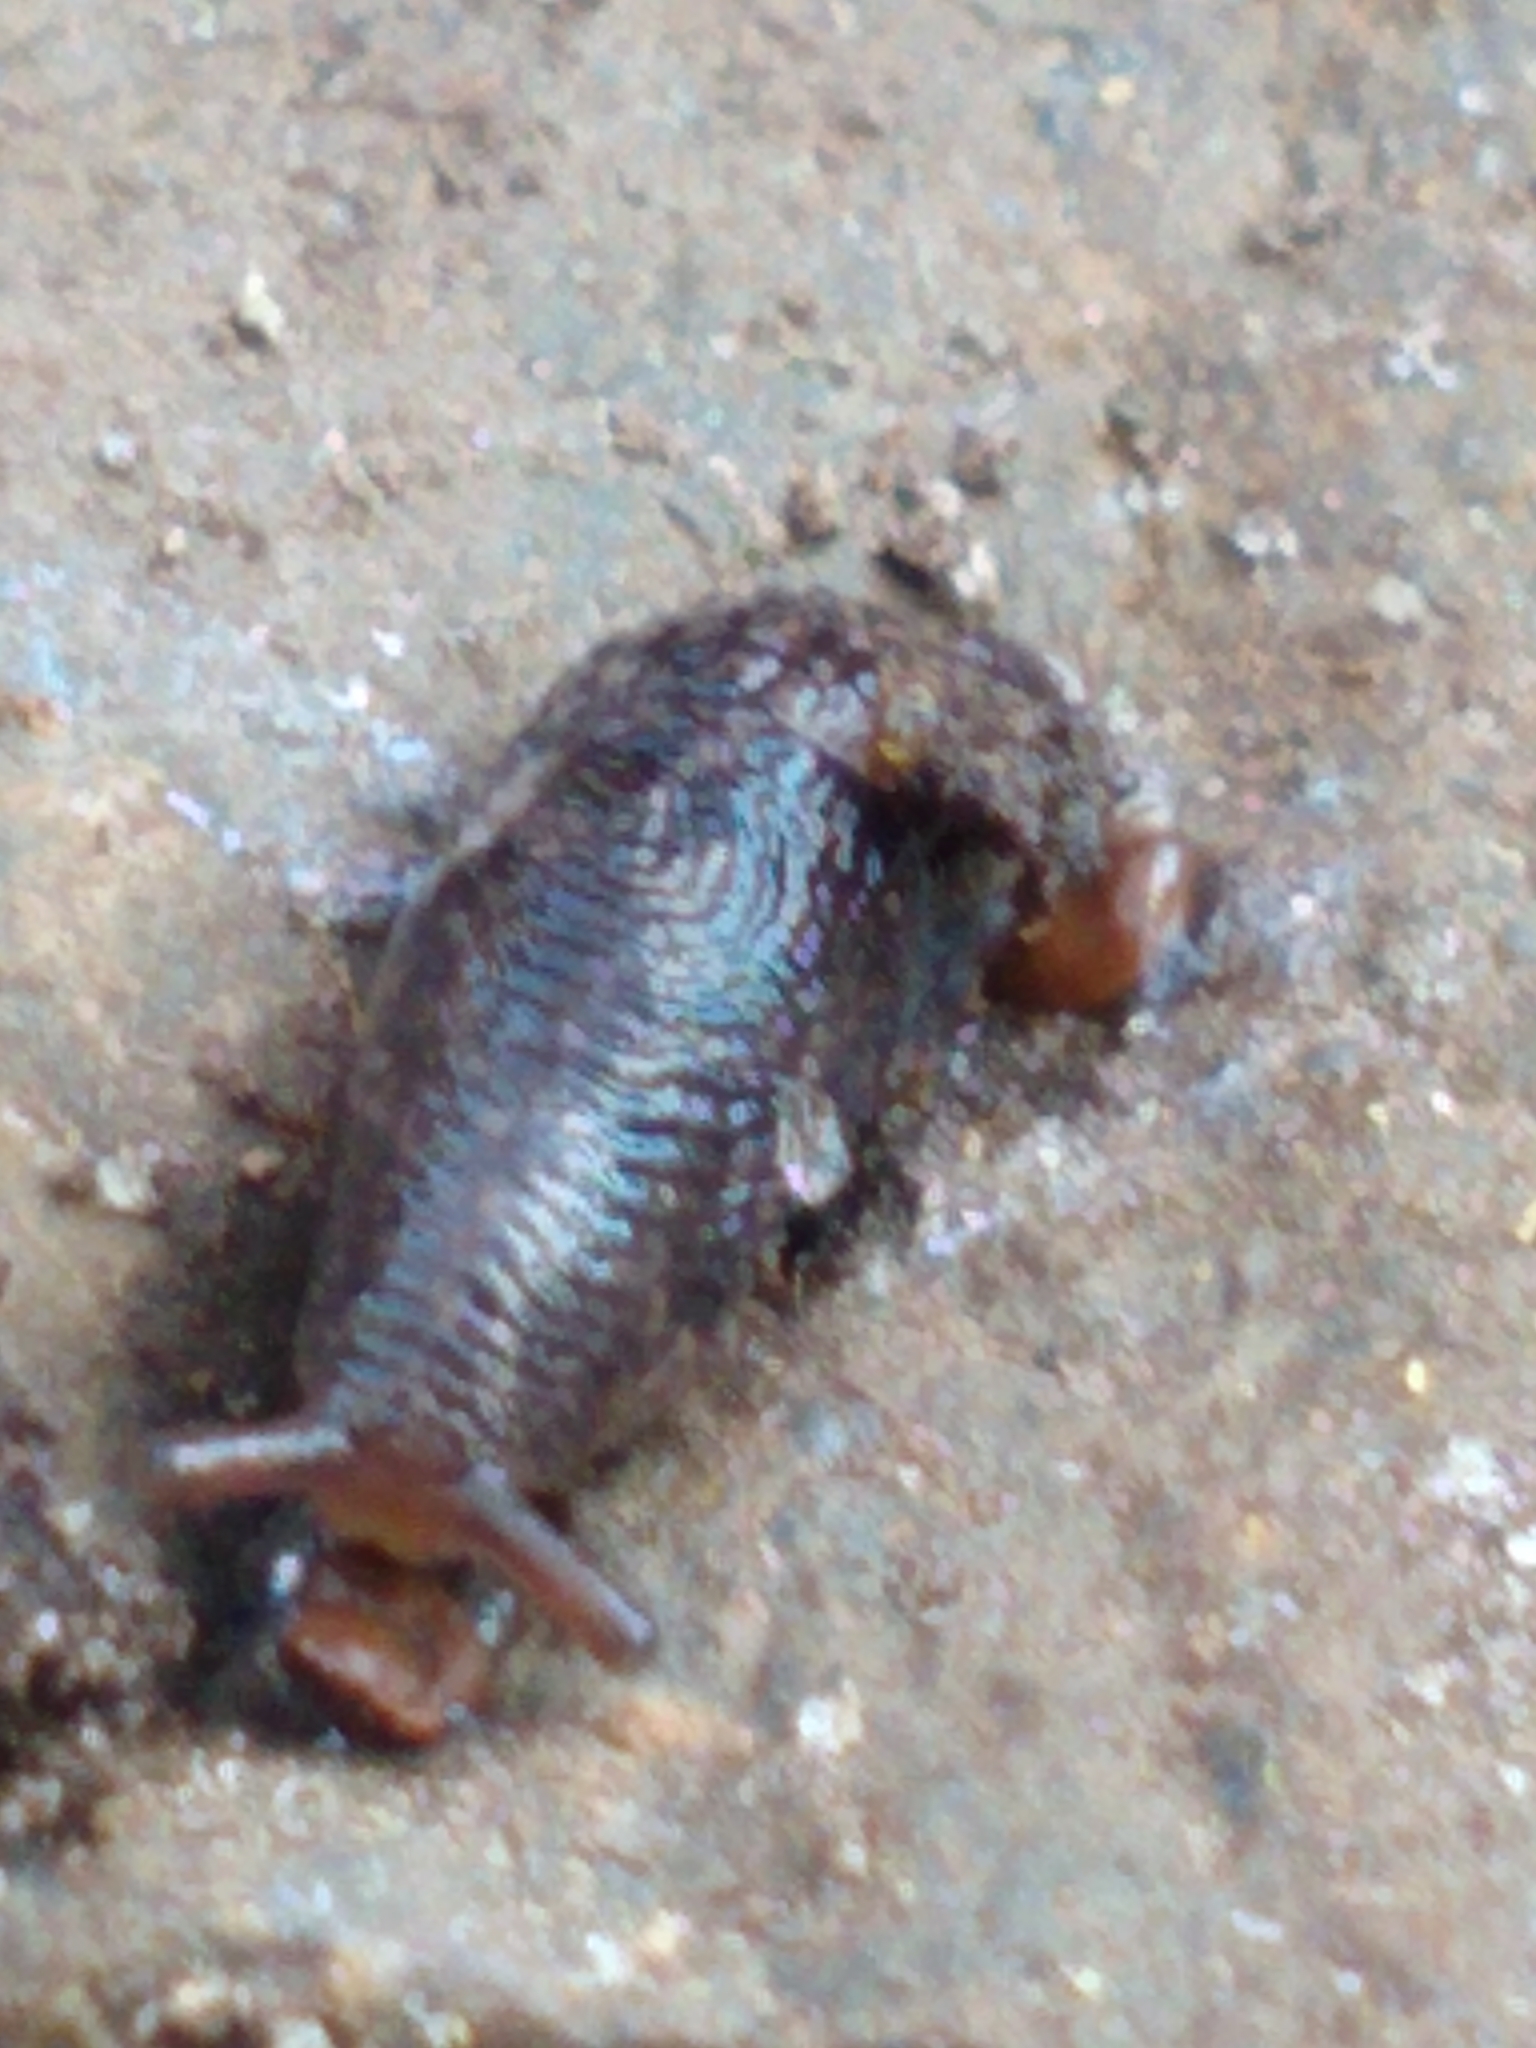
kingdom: Animalia
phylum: Mollusca
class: Gastropoda
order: Stylommatophora
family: Agriolimacidae
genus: Deroceras
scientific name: Deroceras reticulatum
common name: Gray field slug
